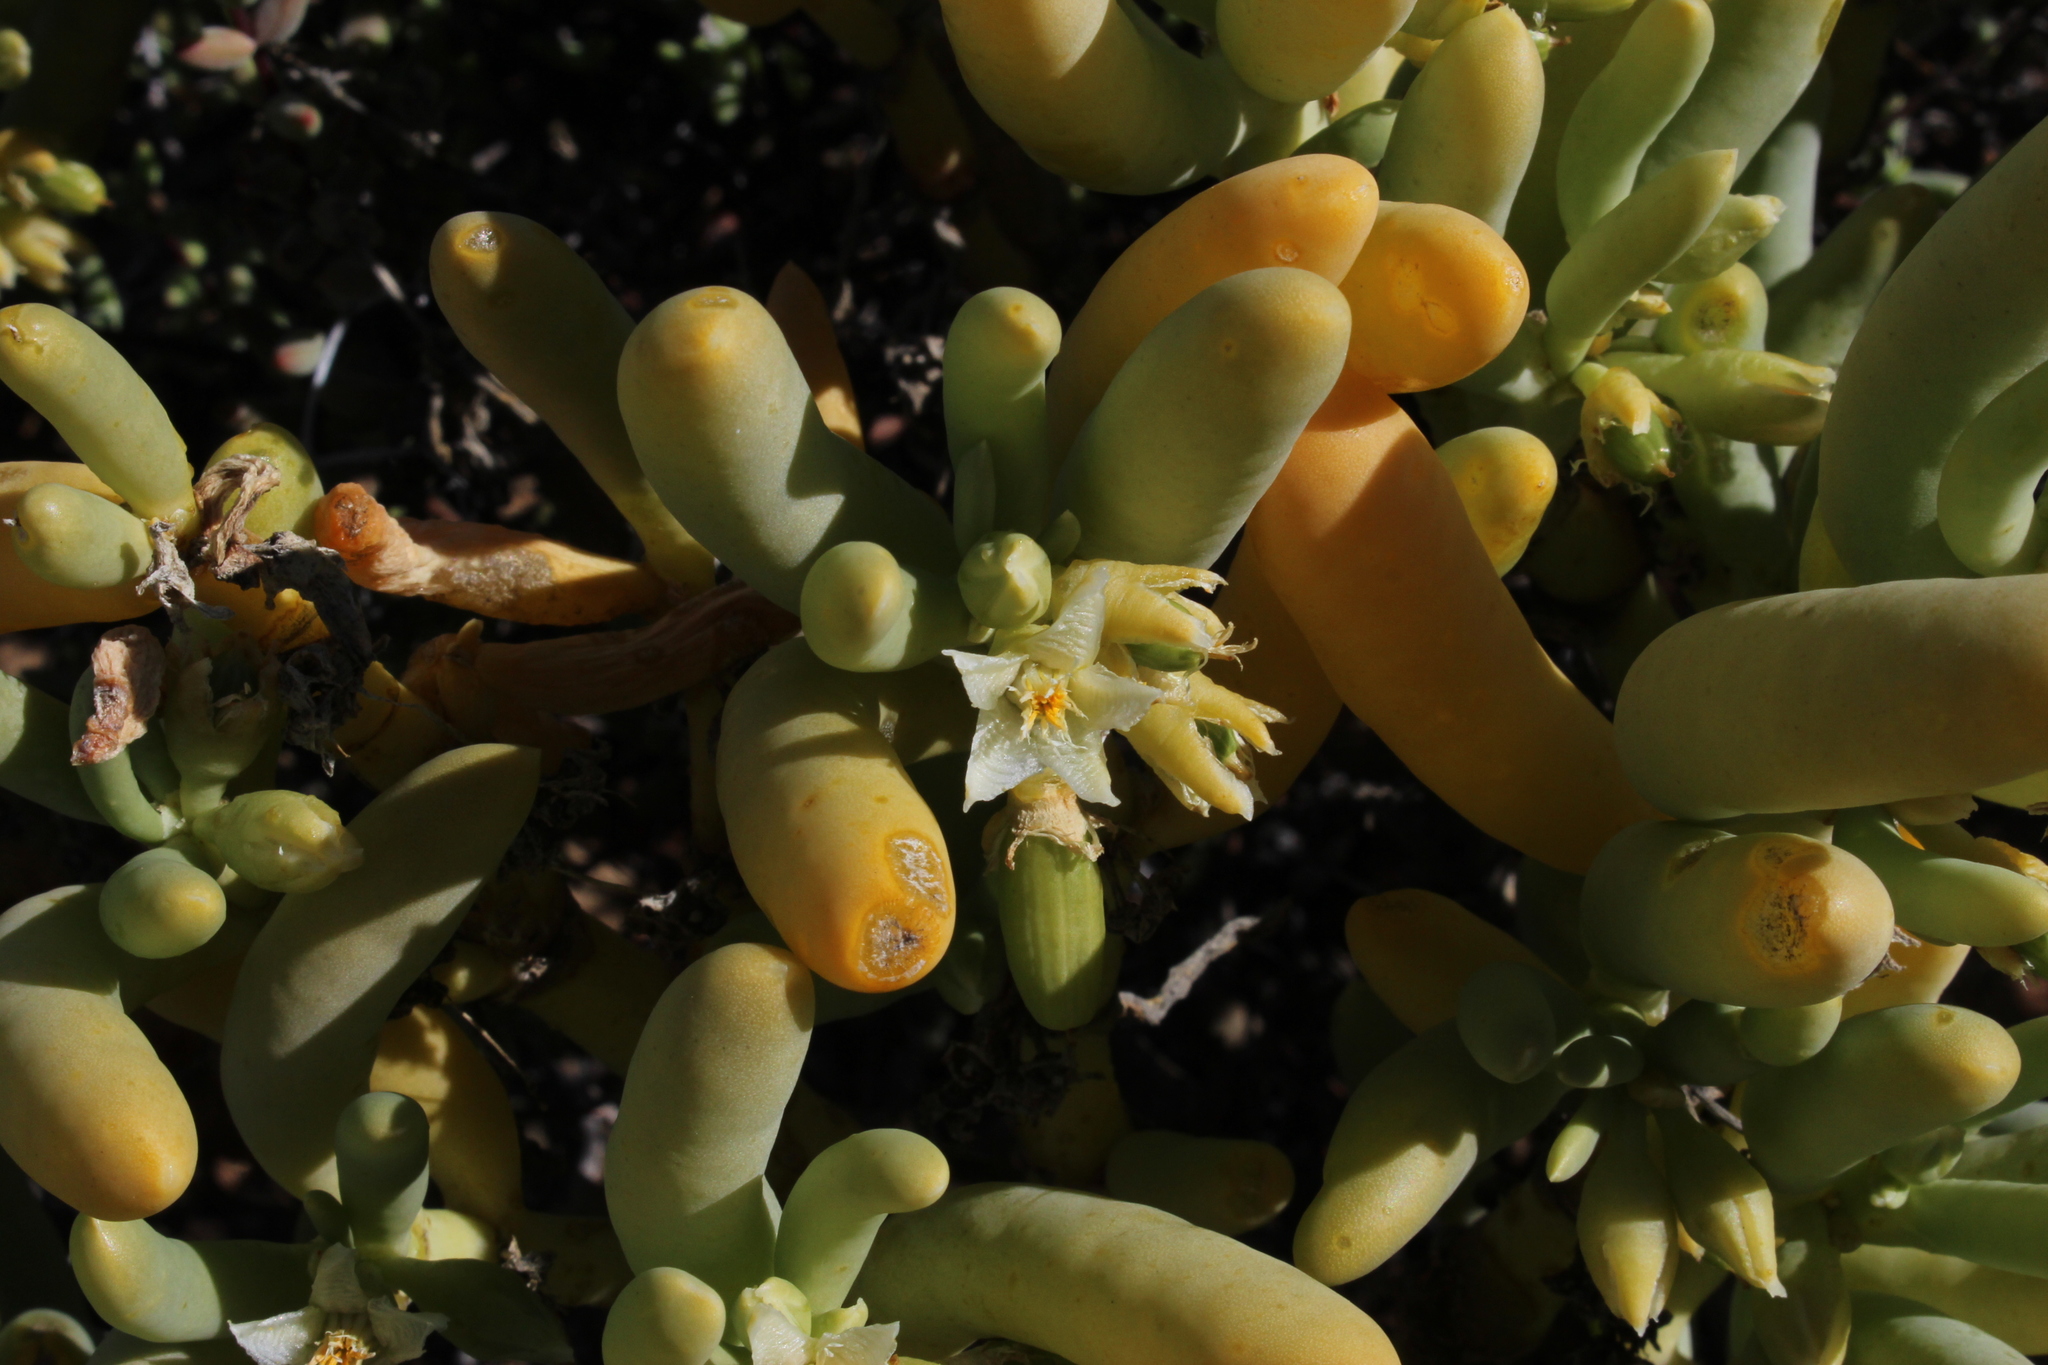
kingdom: Plantae
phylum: Tracheophyta
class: Magnoliopsida
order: Zygophyllales
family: Zygophyllaceae
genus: Augea
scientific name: Augea capensis
